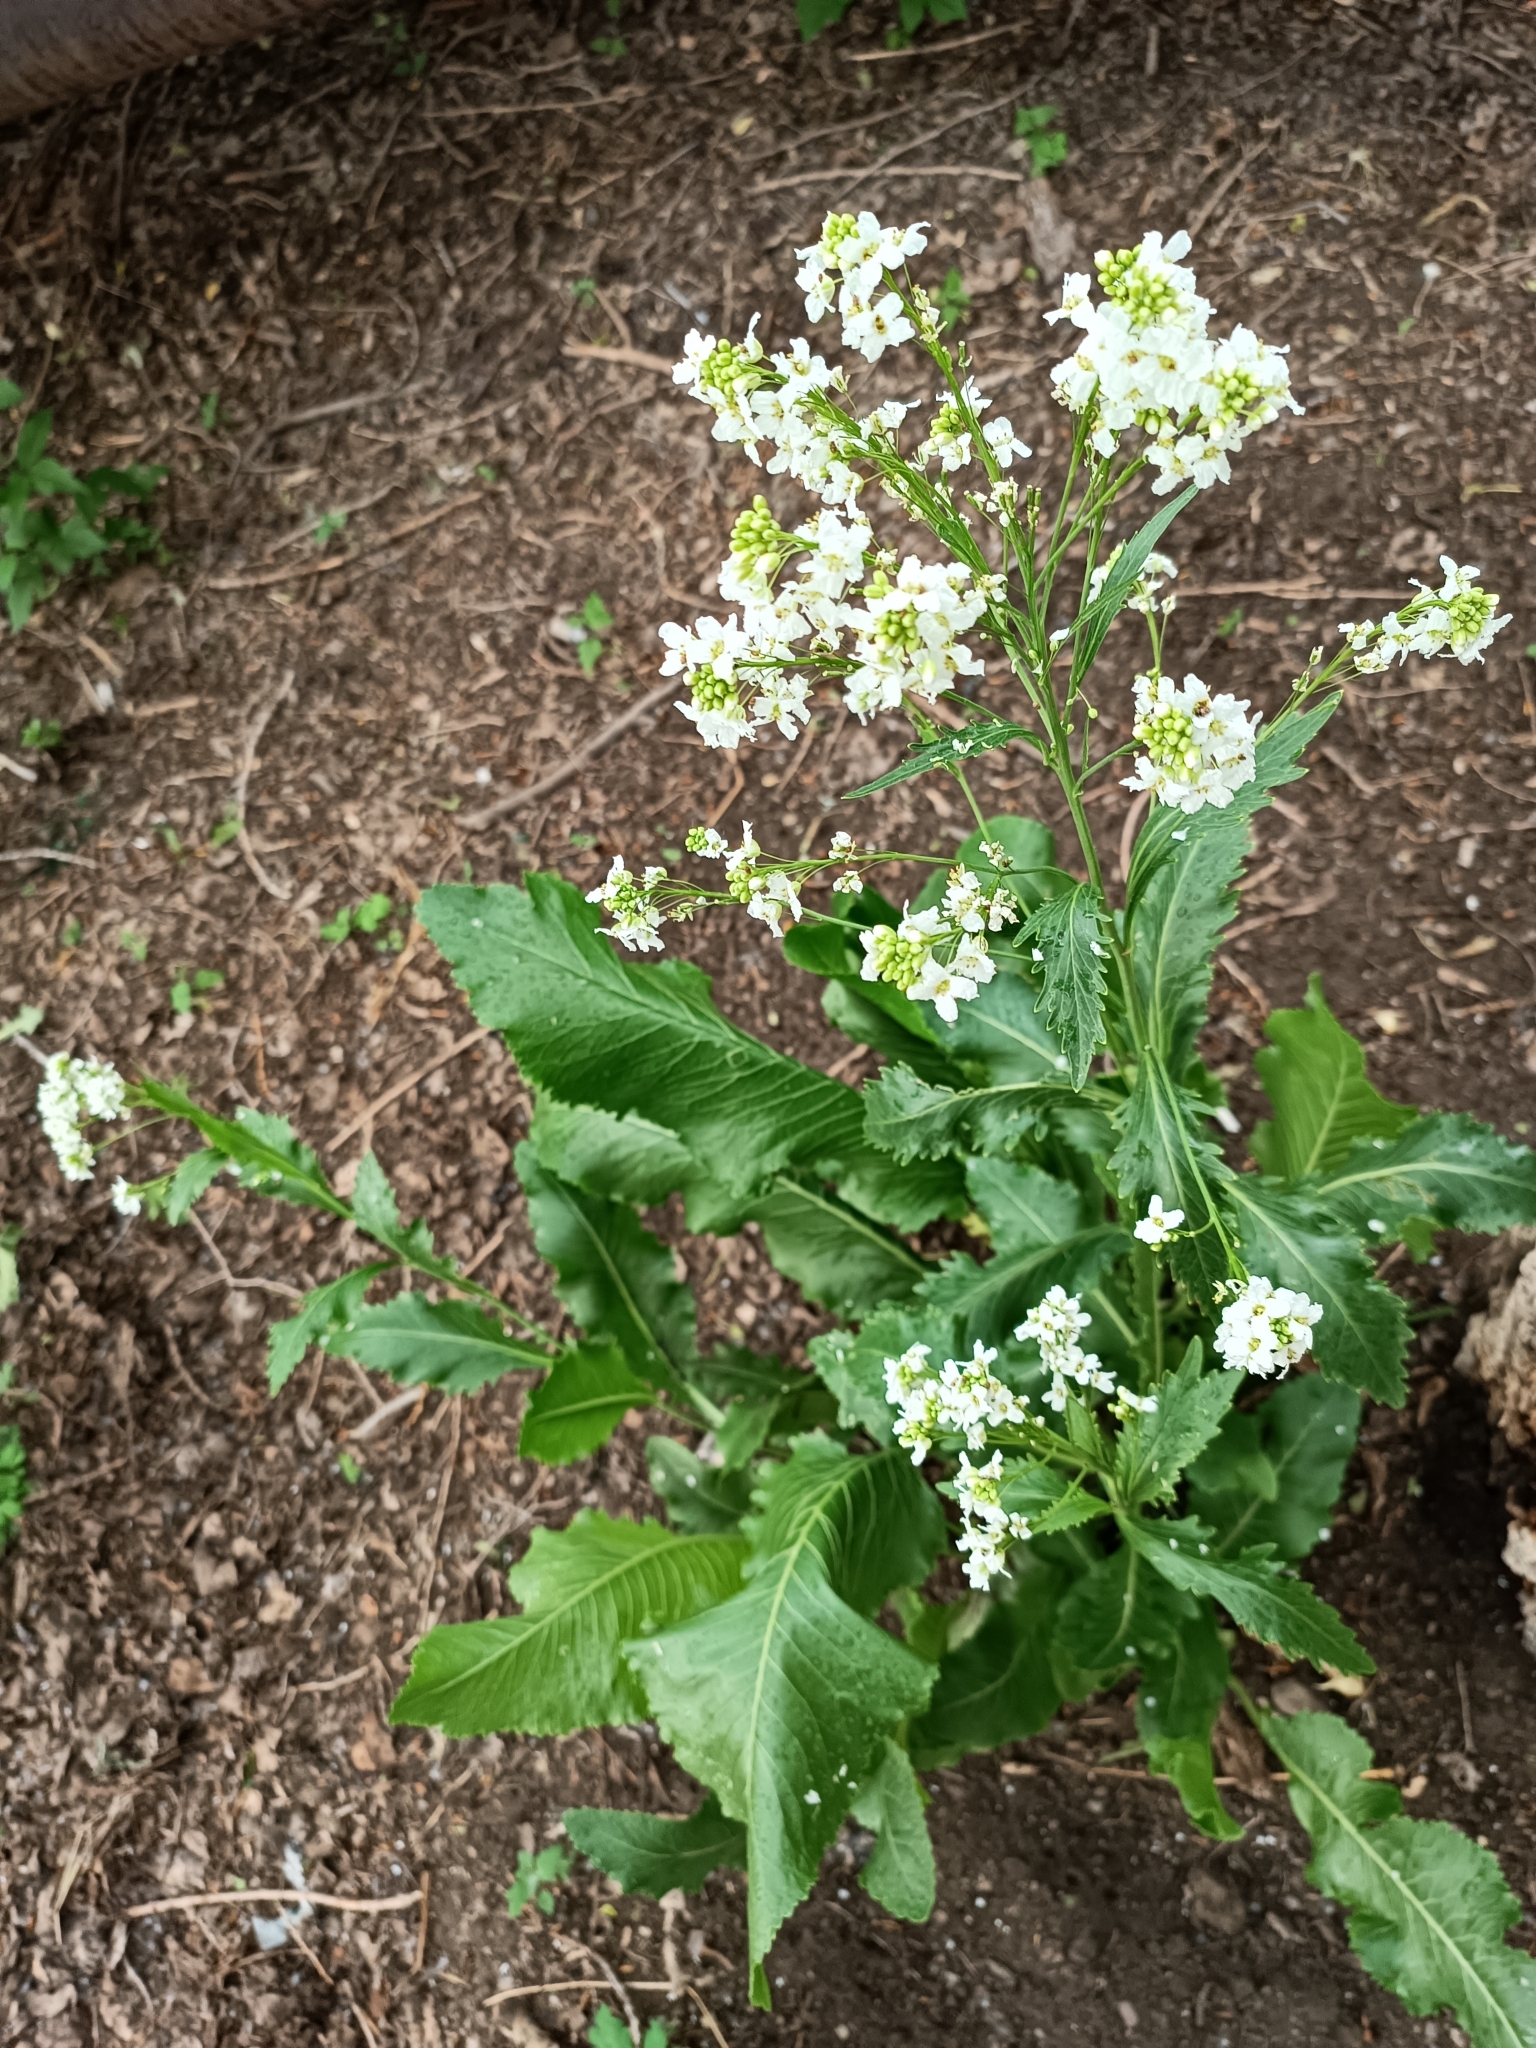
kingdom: Plantae
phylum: Tracheophyta
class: Magnoliopsida
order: Brassicales
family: Brassicaceae
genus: Armoracia
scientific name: Armoracia rusticana
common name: Horseradish
